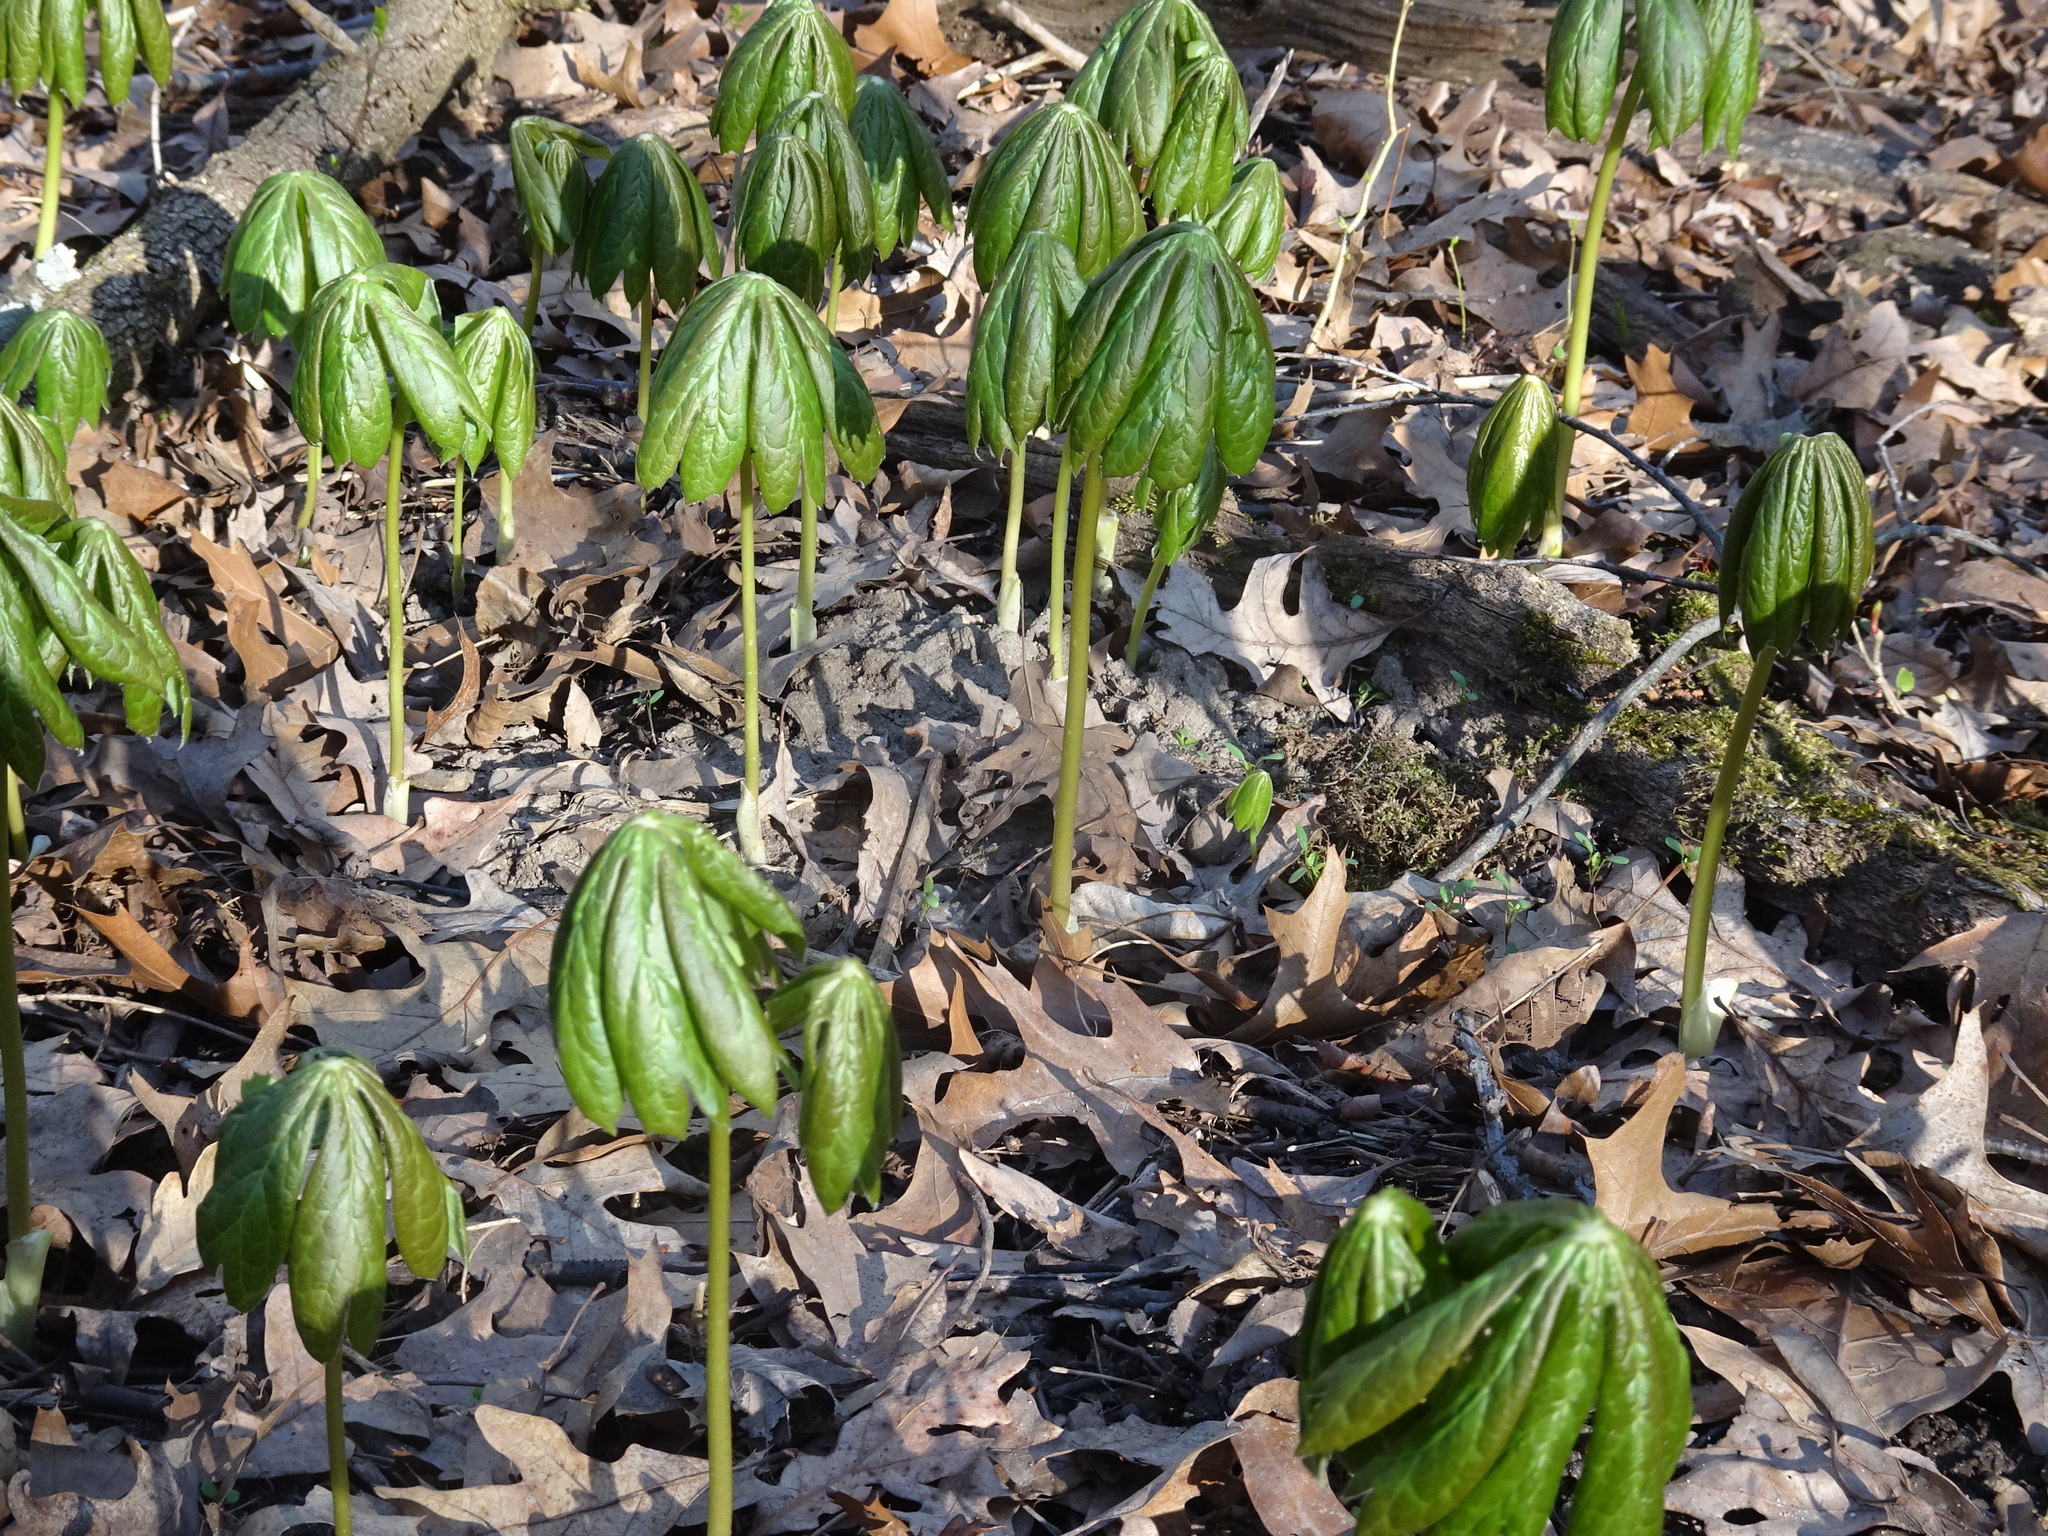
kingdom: Plantae
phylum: Tracheophyta
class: Magnoliopsida
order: Ranunculales
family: Berberidaceae
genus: Podophyllum
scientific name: Podophyllum peltatum
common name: Wild mandrake
